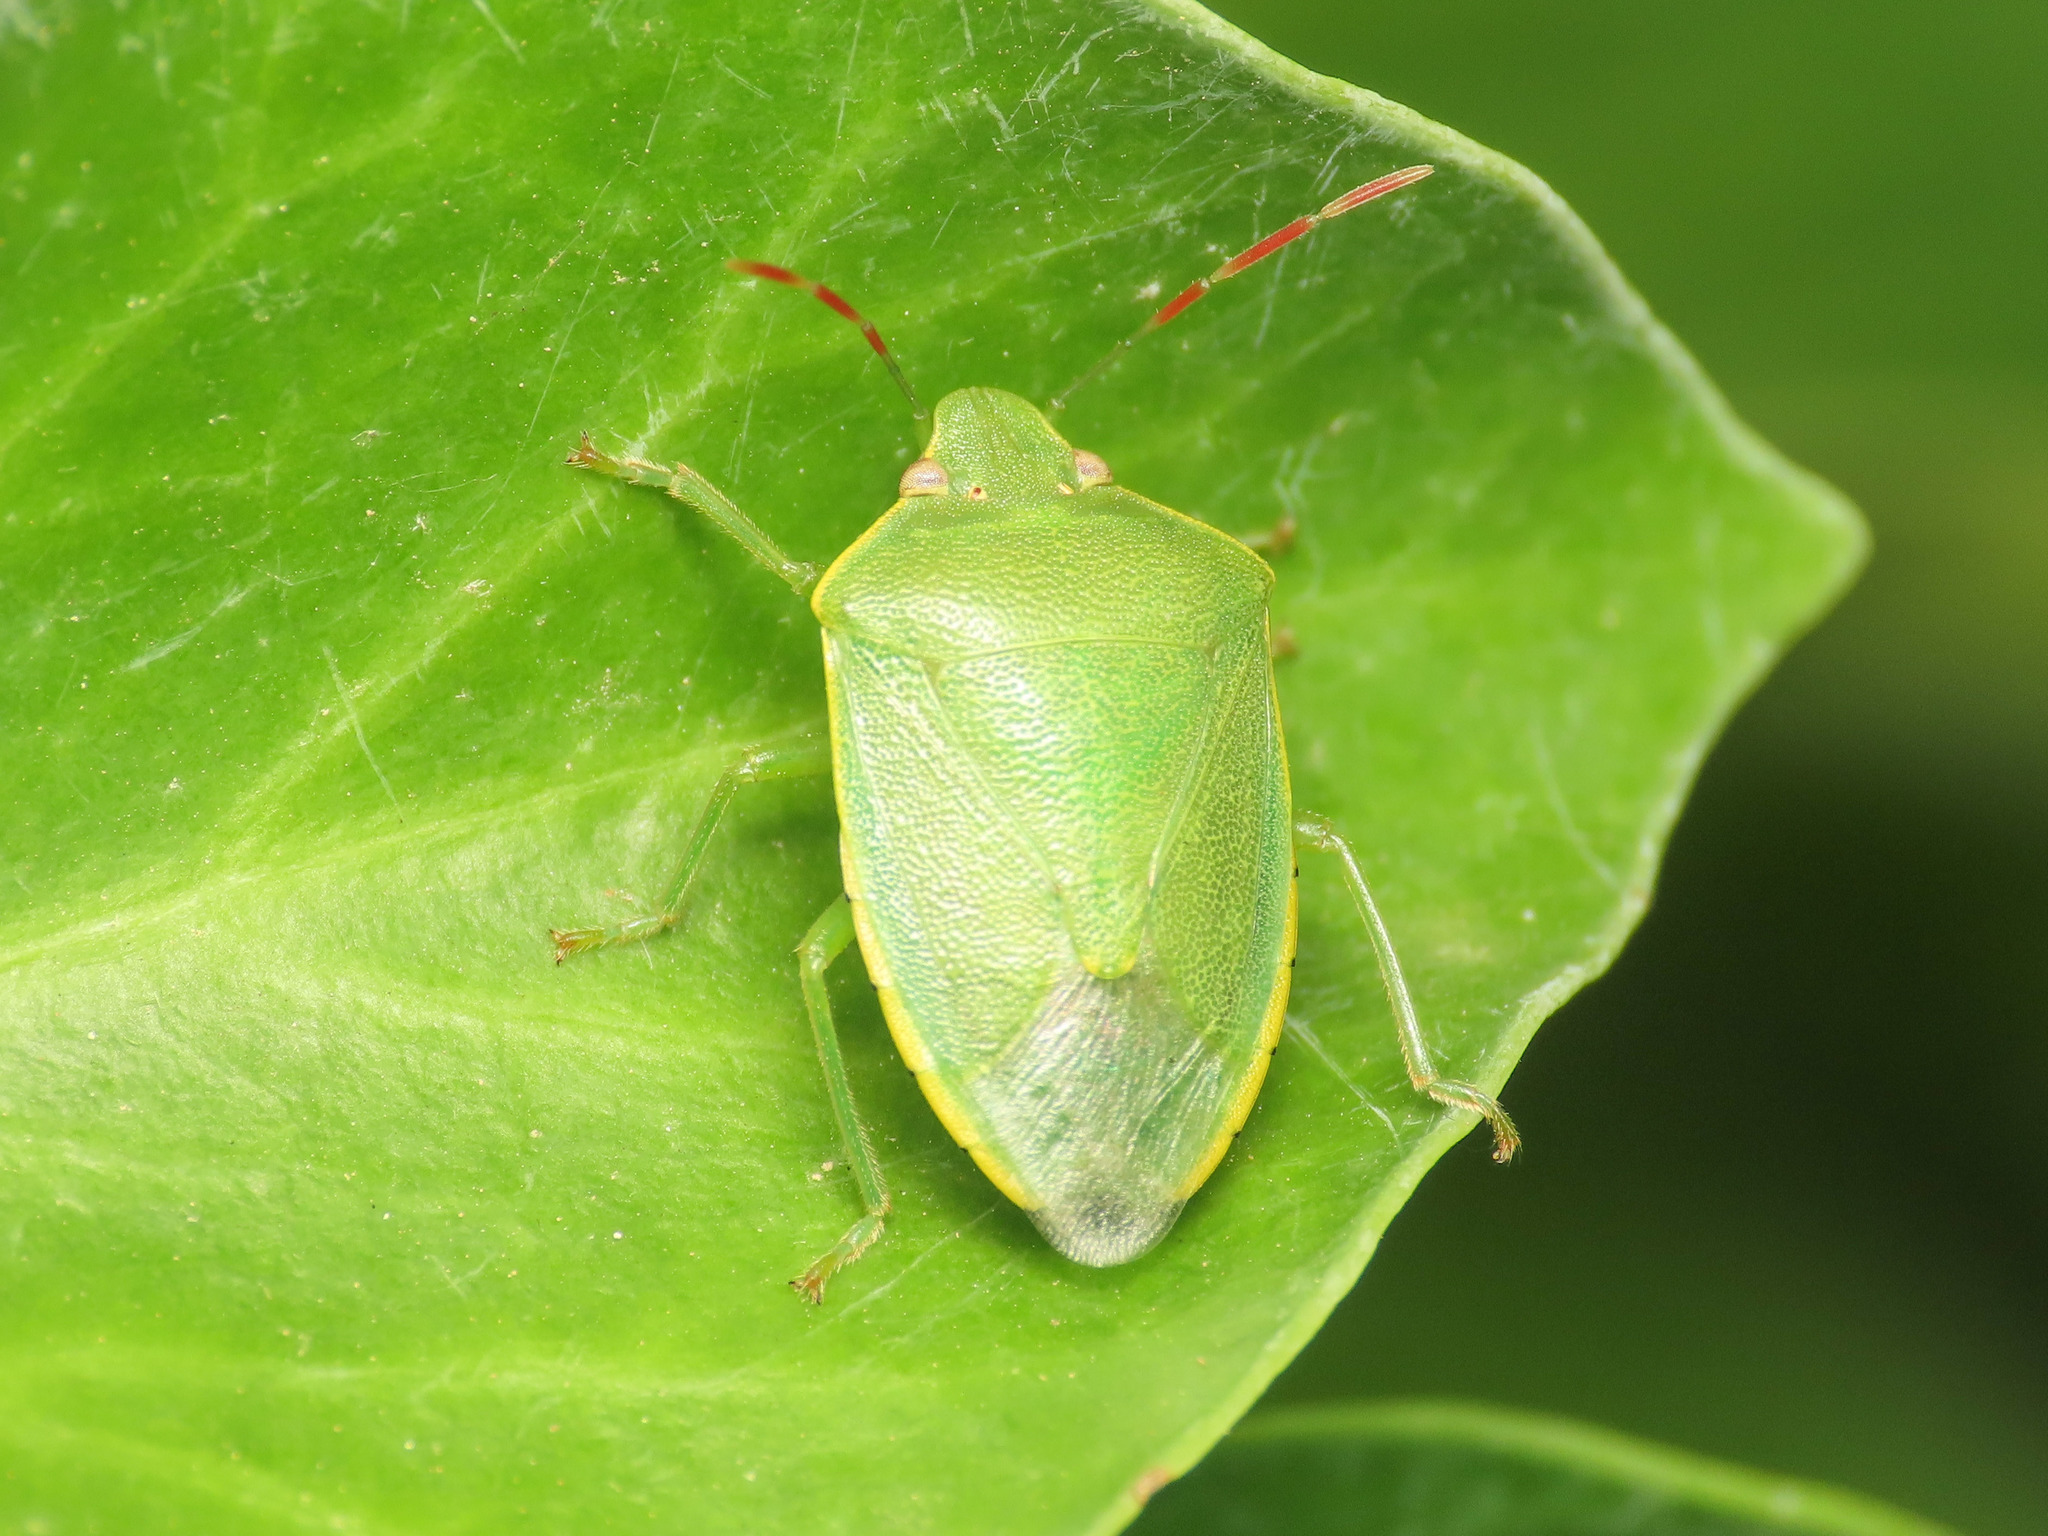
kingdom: Animalia
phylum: Arthropoda
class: Insecta
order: Hemiptera
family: Pentatomidae
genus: Acrosternum
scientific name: Acrosternum heegeri
